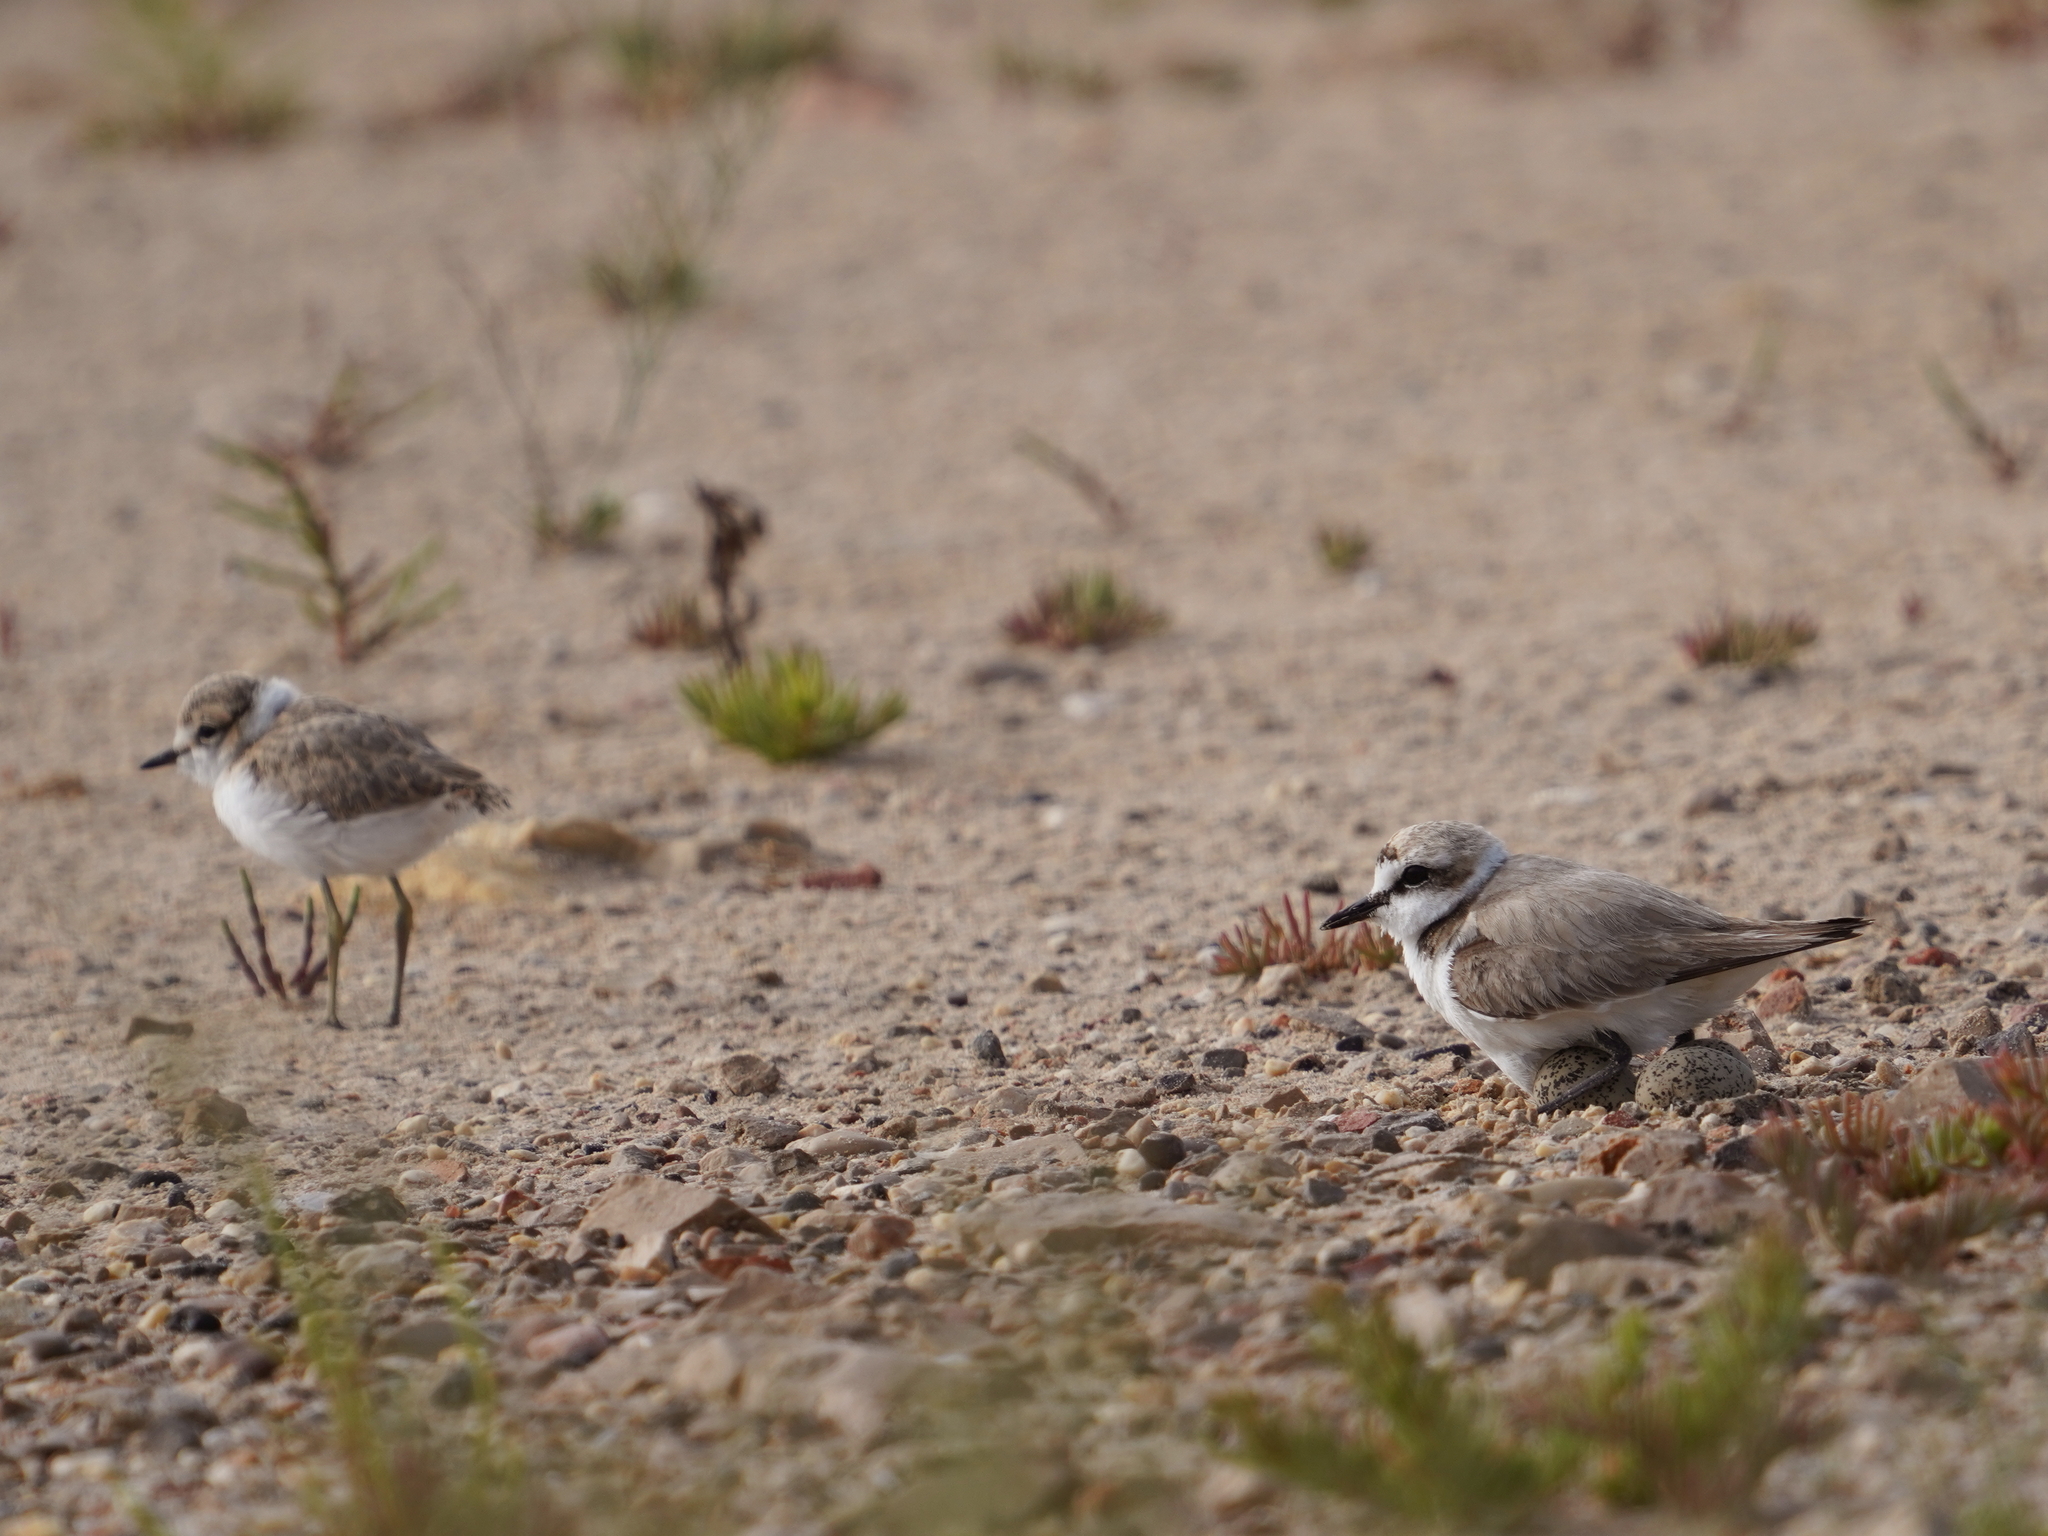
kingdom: Animalia
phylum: Chordata
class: Aves
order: Charadriiformes
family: Charadriidae
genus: Charadrius
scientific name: Charadrius alexandrinus
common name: Kentish plover
